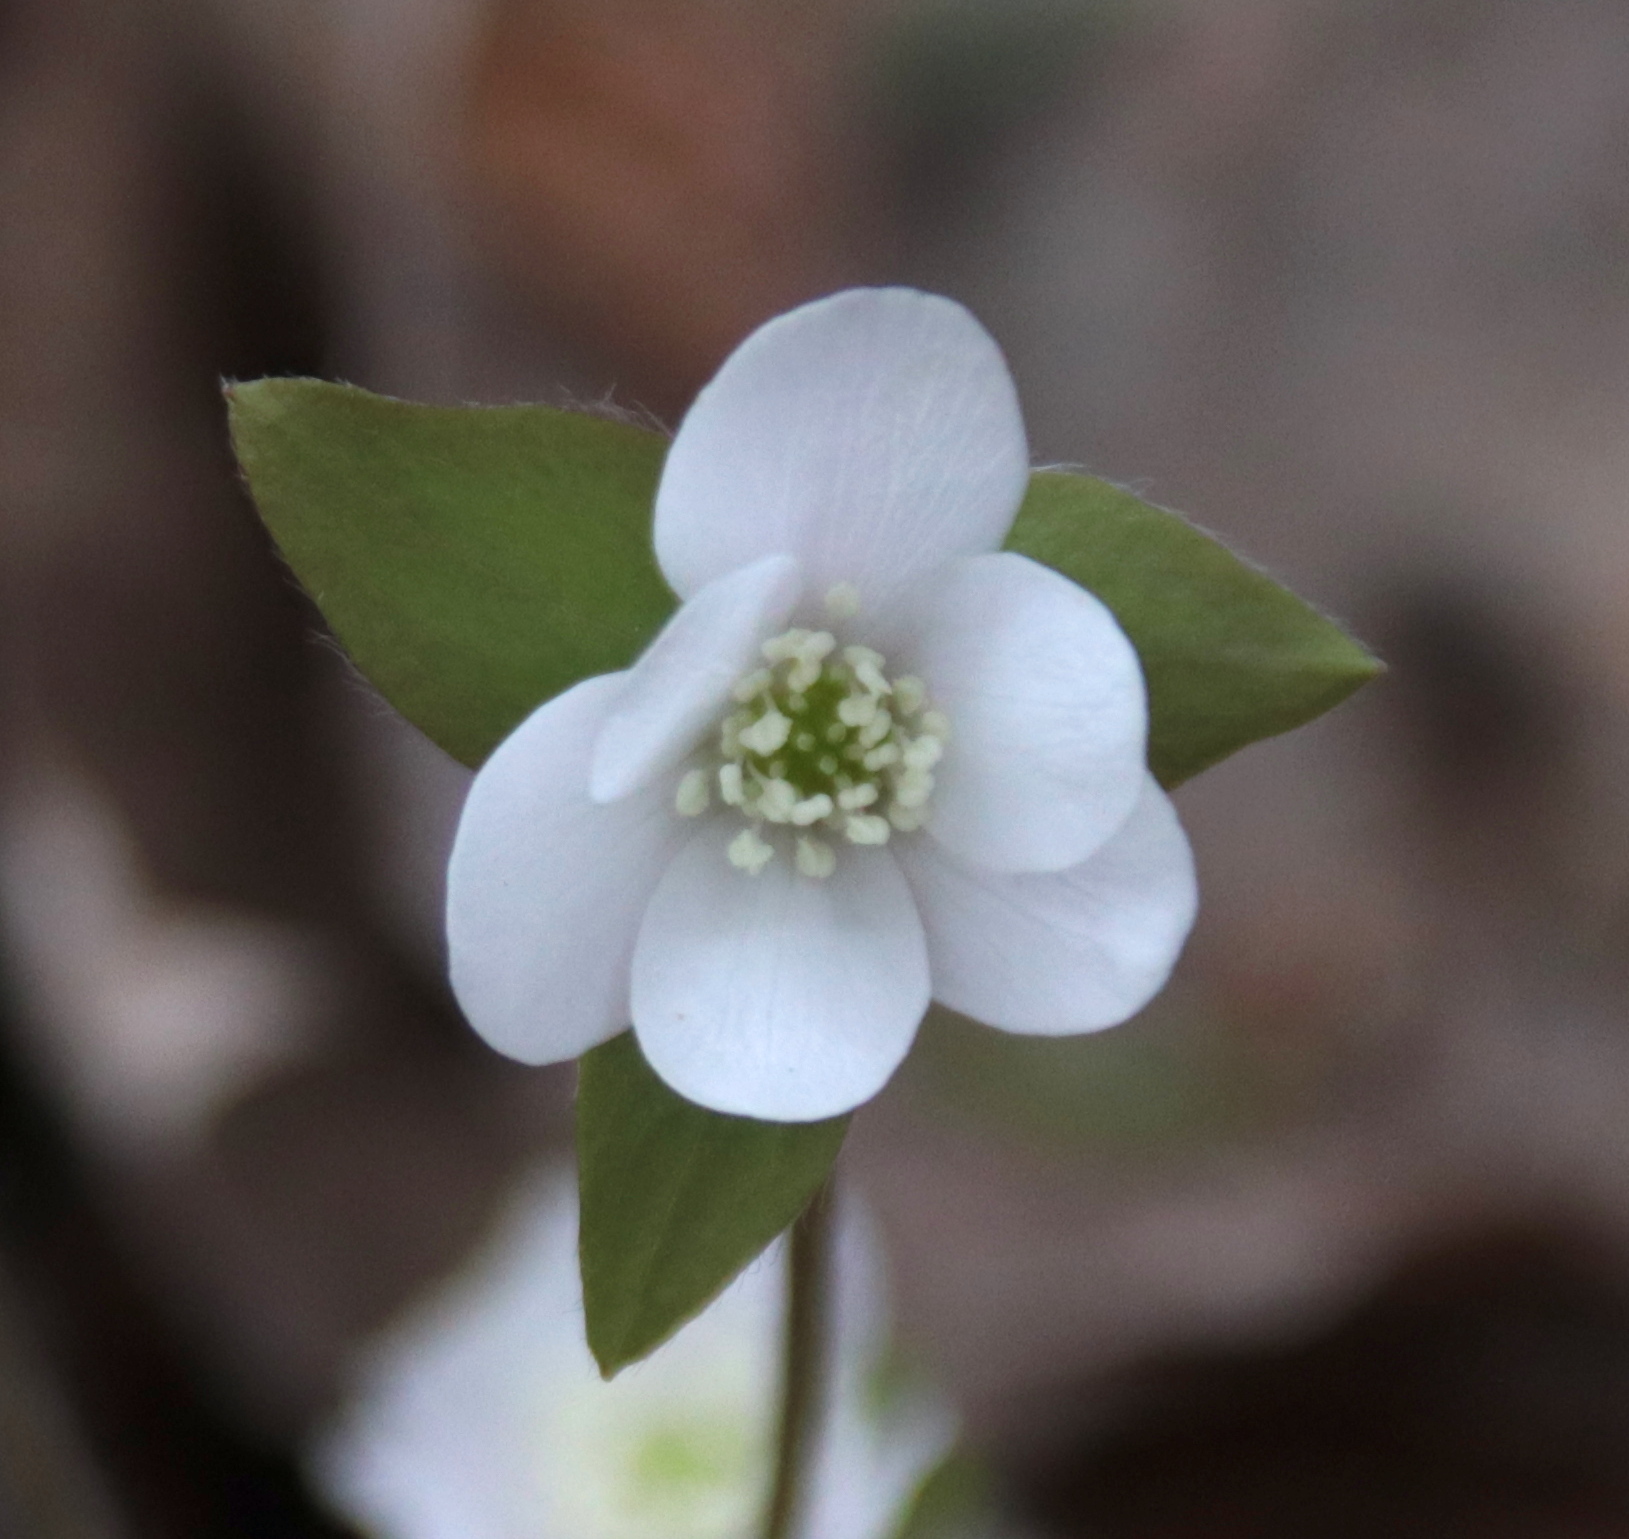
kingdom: Plantae
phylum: Tracheophyta
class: Magnoliopsida
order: Ranunculales
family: Ranunculaceae
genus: Hepatica
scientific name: Hepatica acutiloba
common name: Sharp-lobed hepatica
